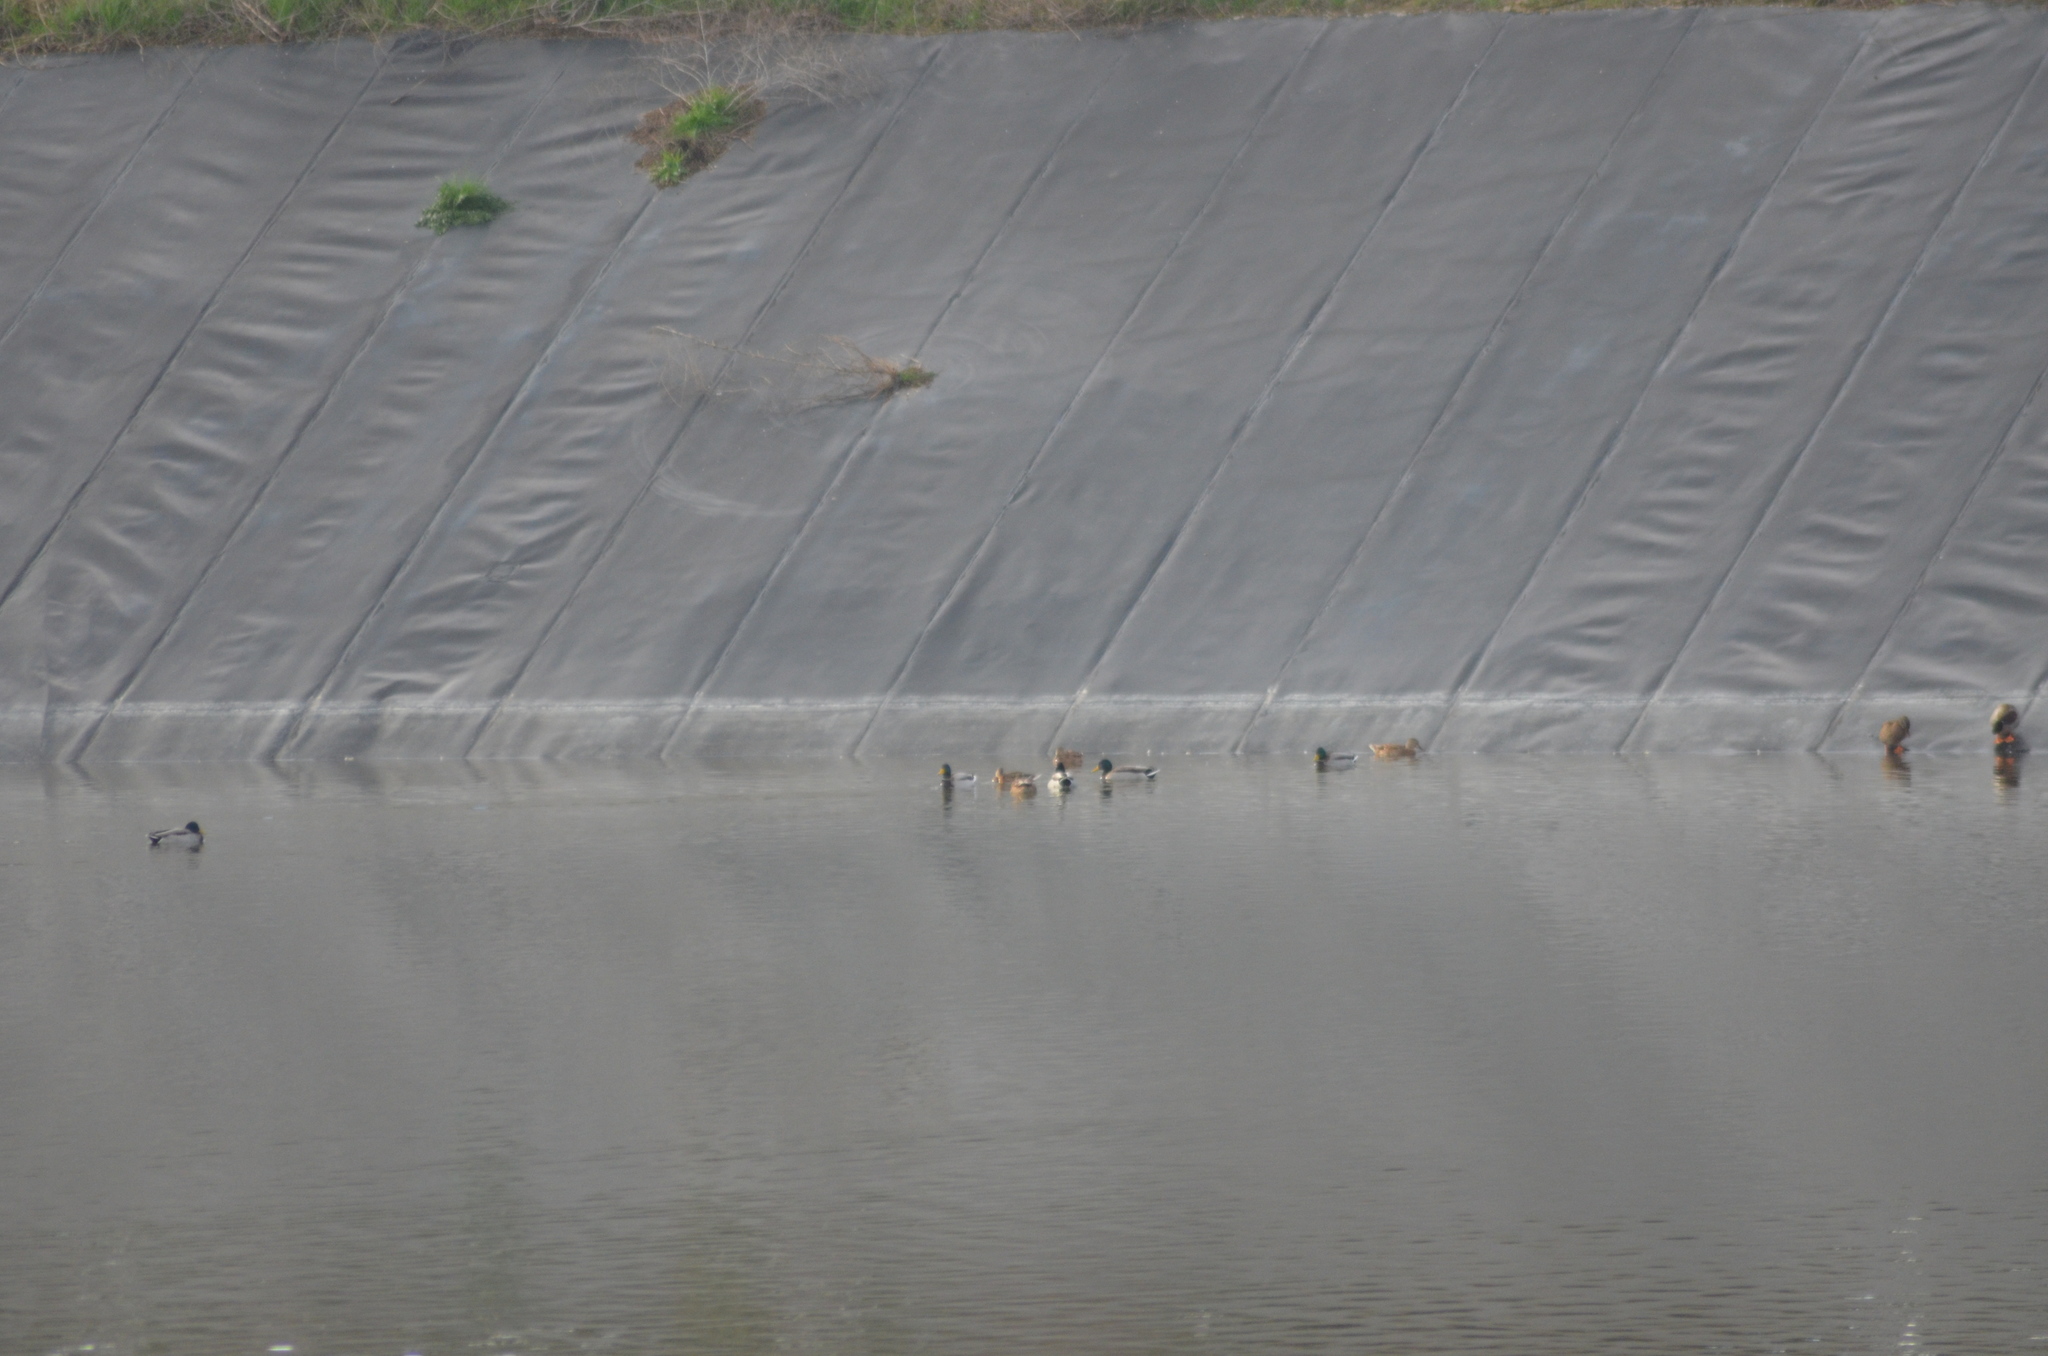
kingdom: Animalia
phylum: Chordata
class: Aves
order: Anseriformes
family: Anatidae
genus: Anas
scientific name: Anas platyrhynchos
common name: Mallard
